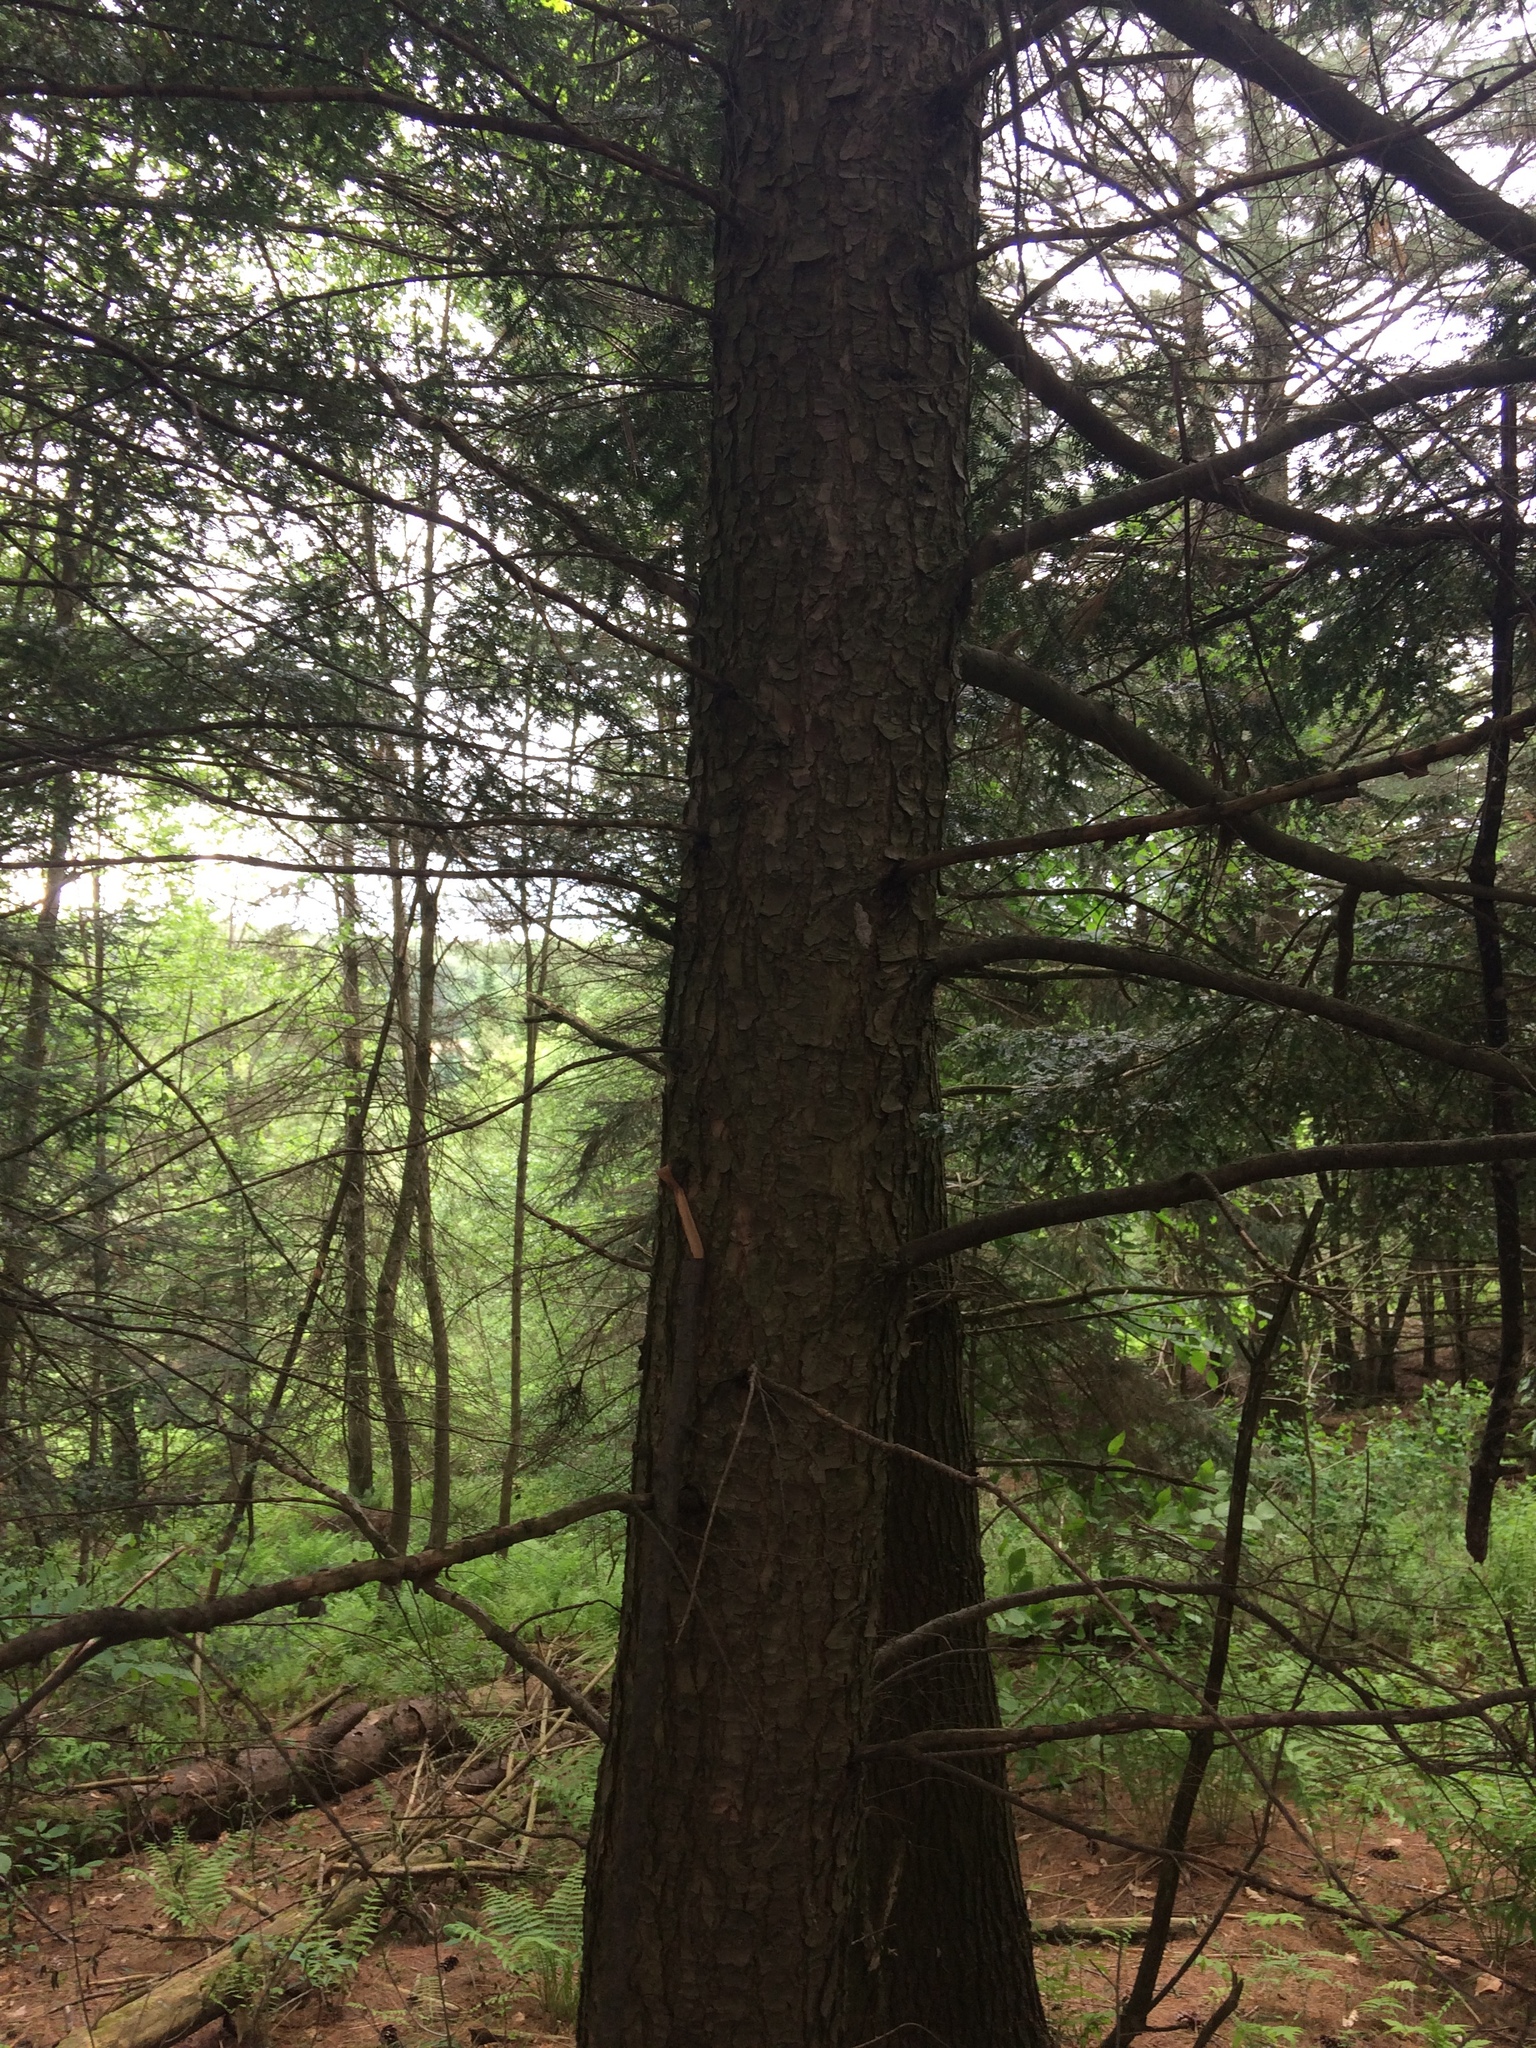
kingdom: Plantae
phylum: Tracheophyta
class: Pinopsida
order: Pinales
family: Pinaceae
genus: Tsuga
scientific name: Tsuga canadensis
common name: Eastern hemlock
